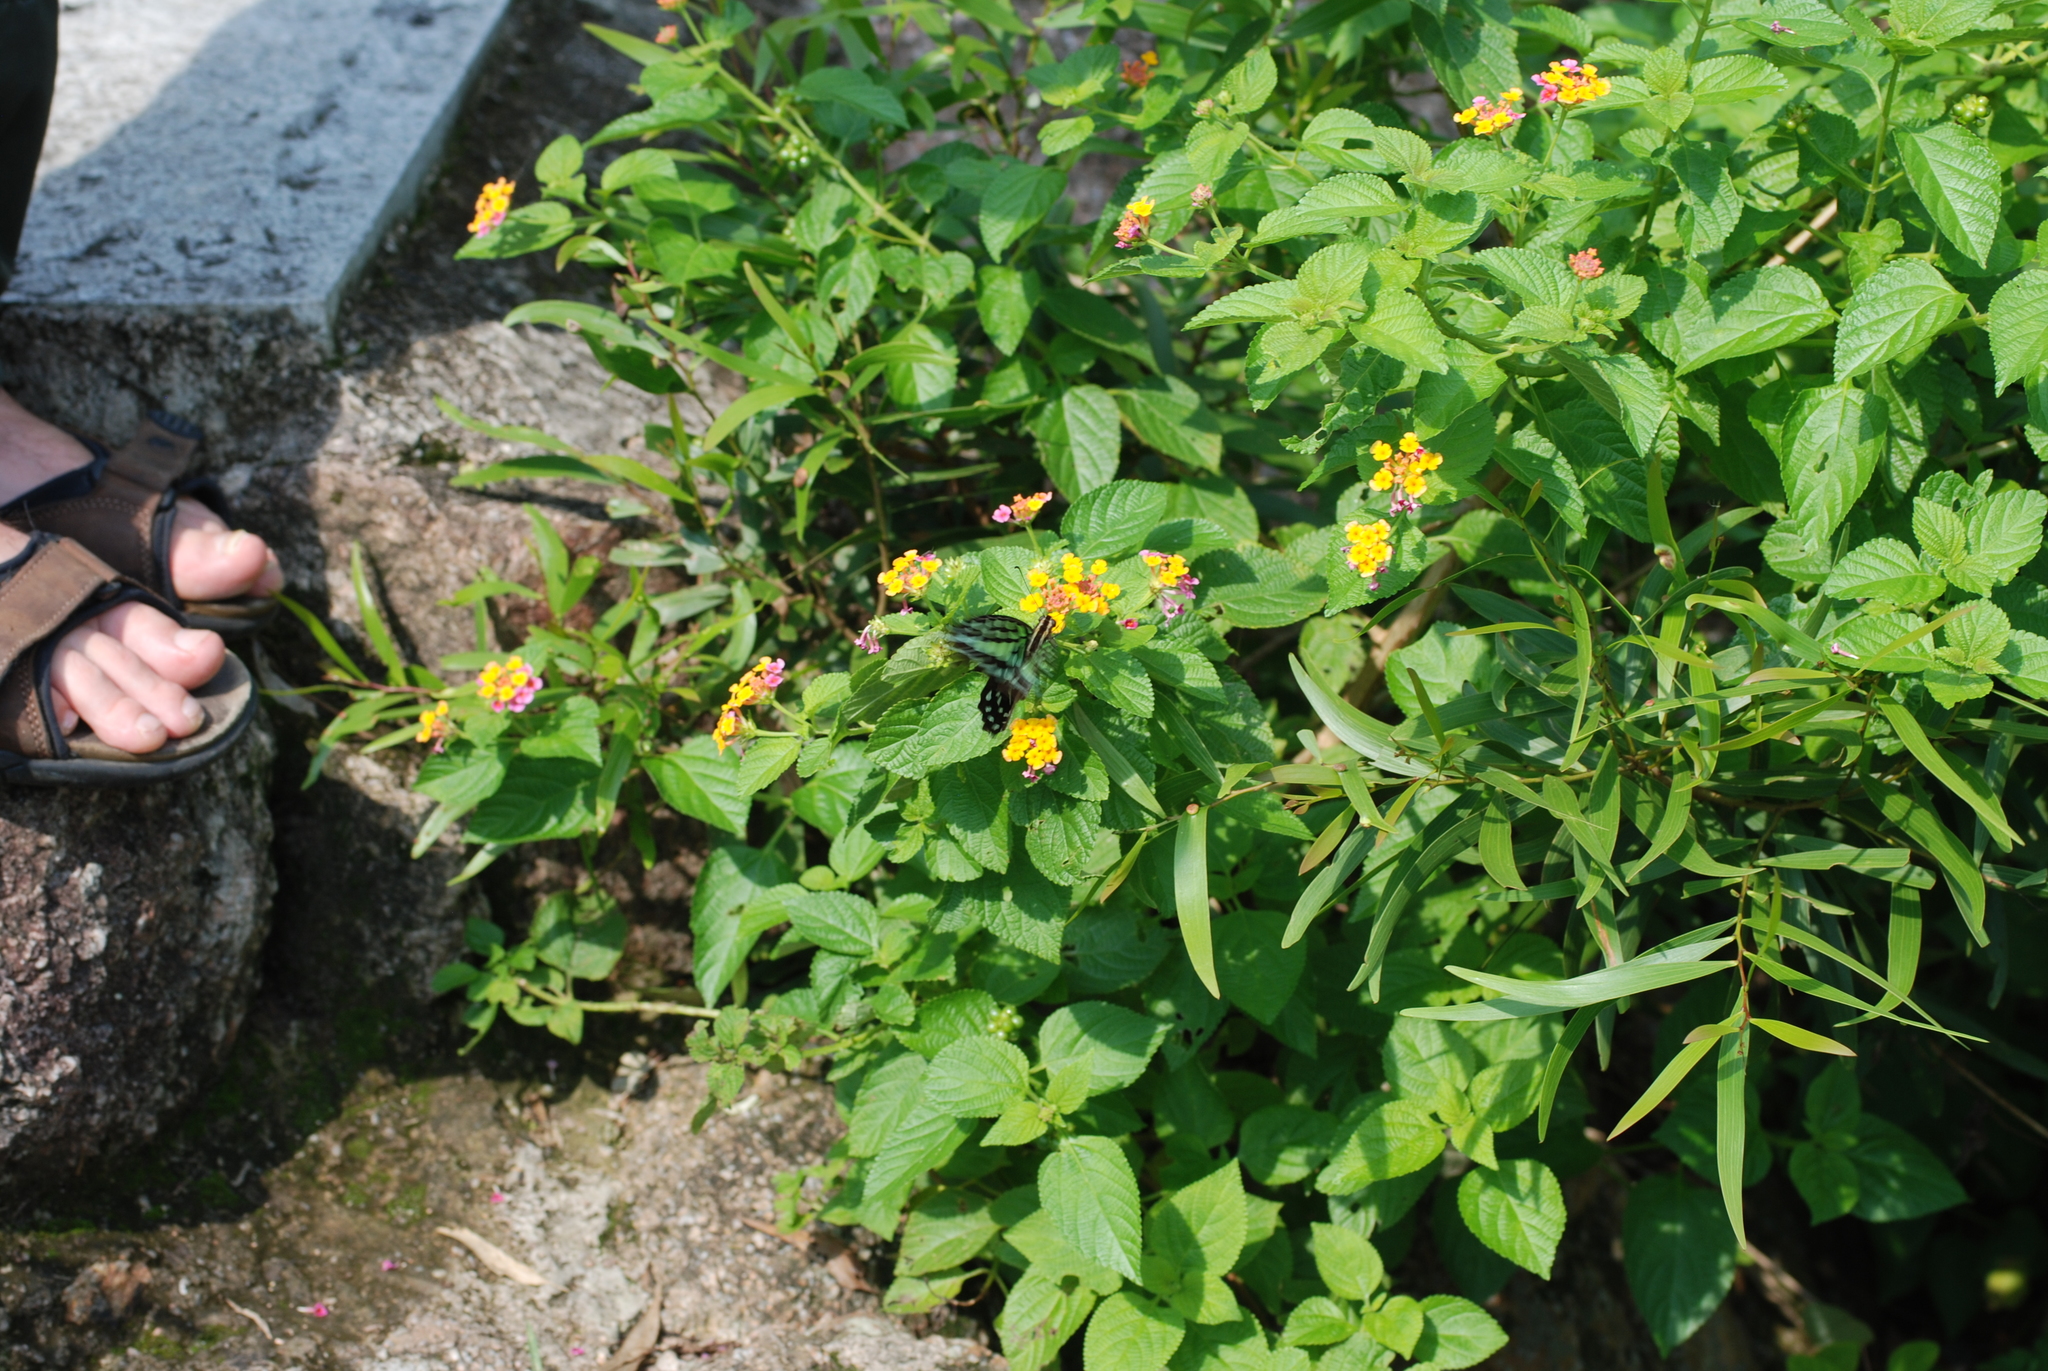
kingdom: Plantae
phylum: Tracheophyta
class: Magnoliopsida
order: Lamiales
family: Verbenaceae
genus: Lantana
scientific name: Lantana camara
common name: Lantana
